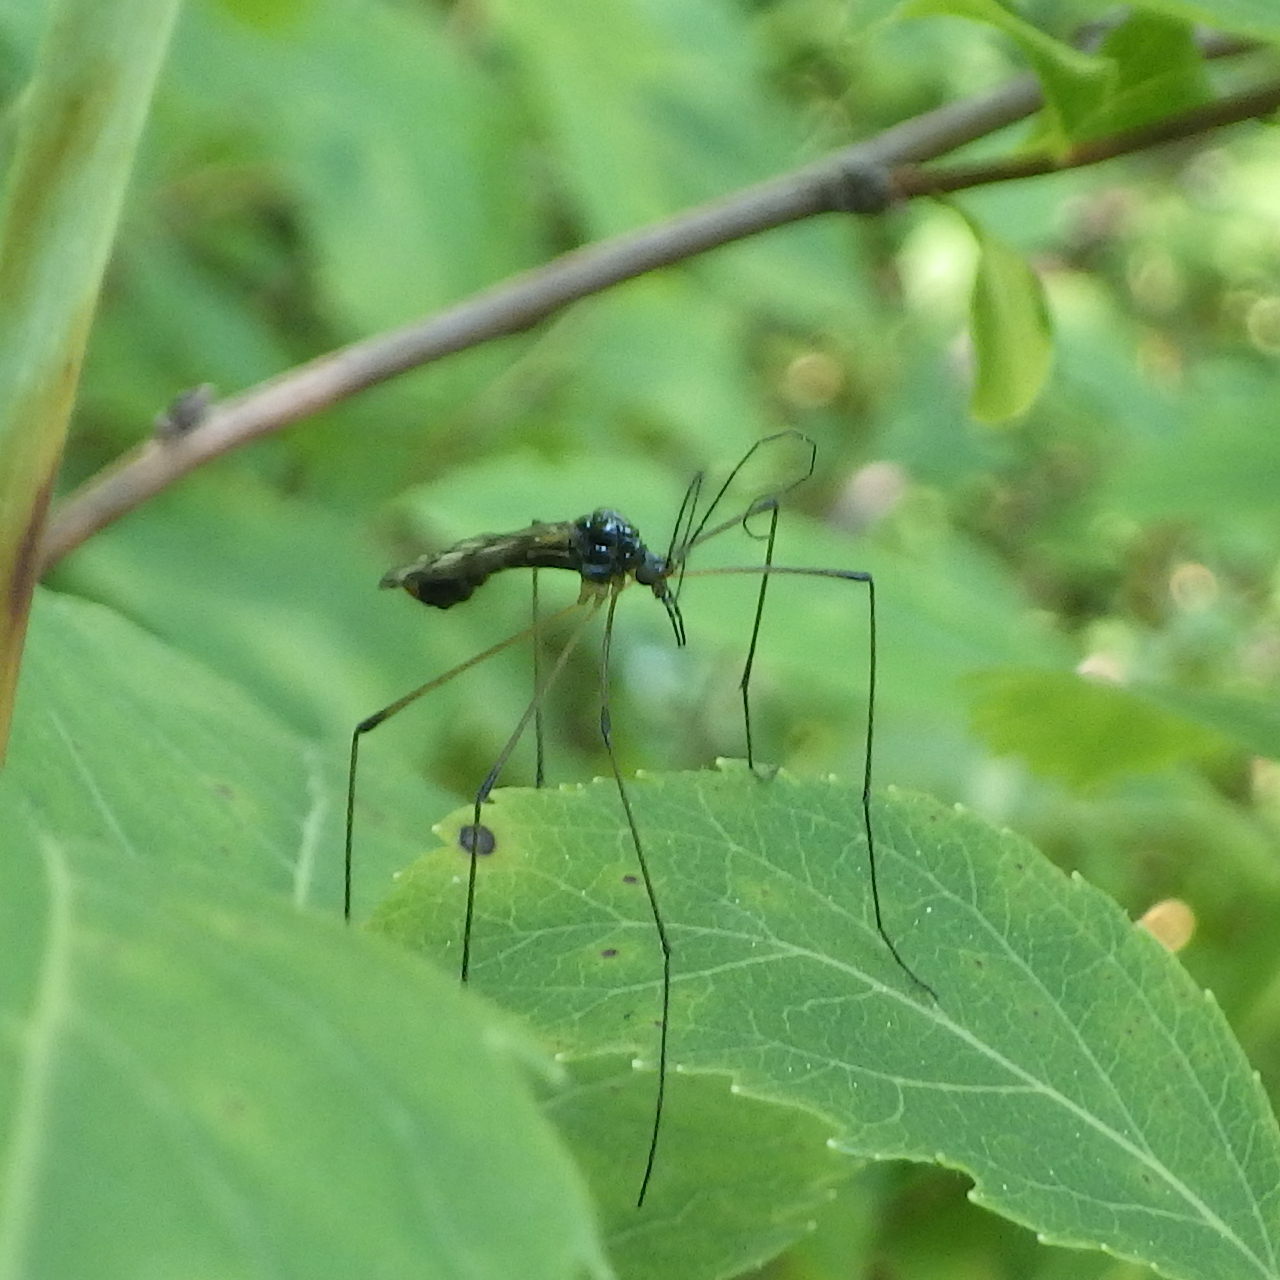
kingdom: Animalia
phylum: Arthropoda
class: Insecta
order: Diptera
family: Limoniidae
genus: Limnophila
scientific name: Limnophila macrocera
